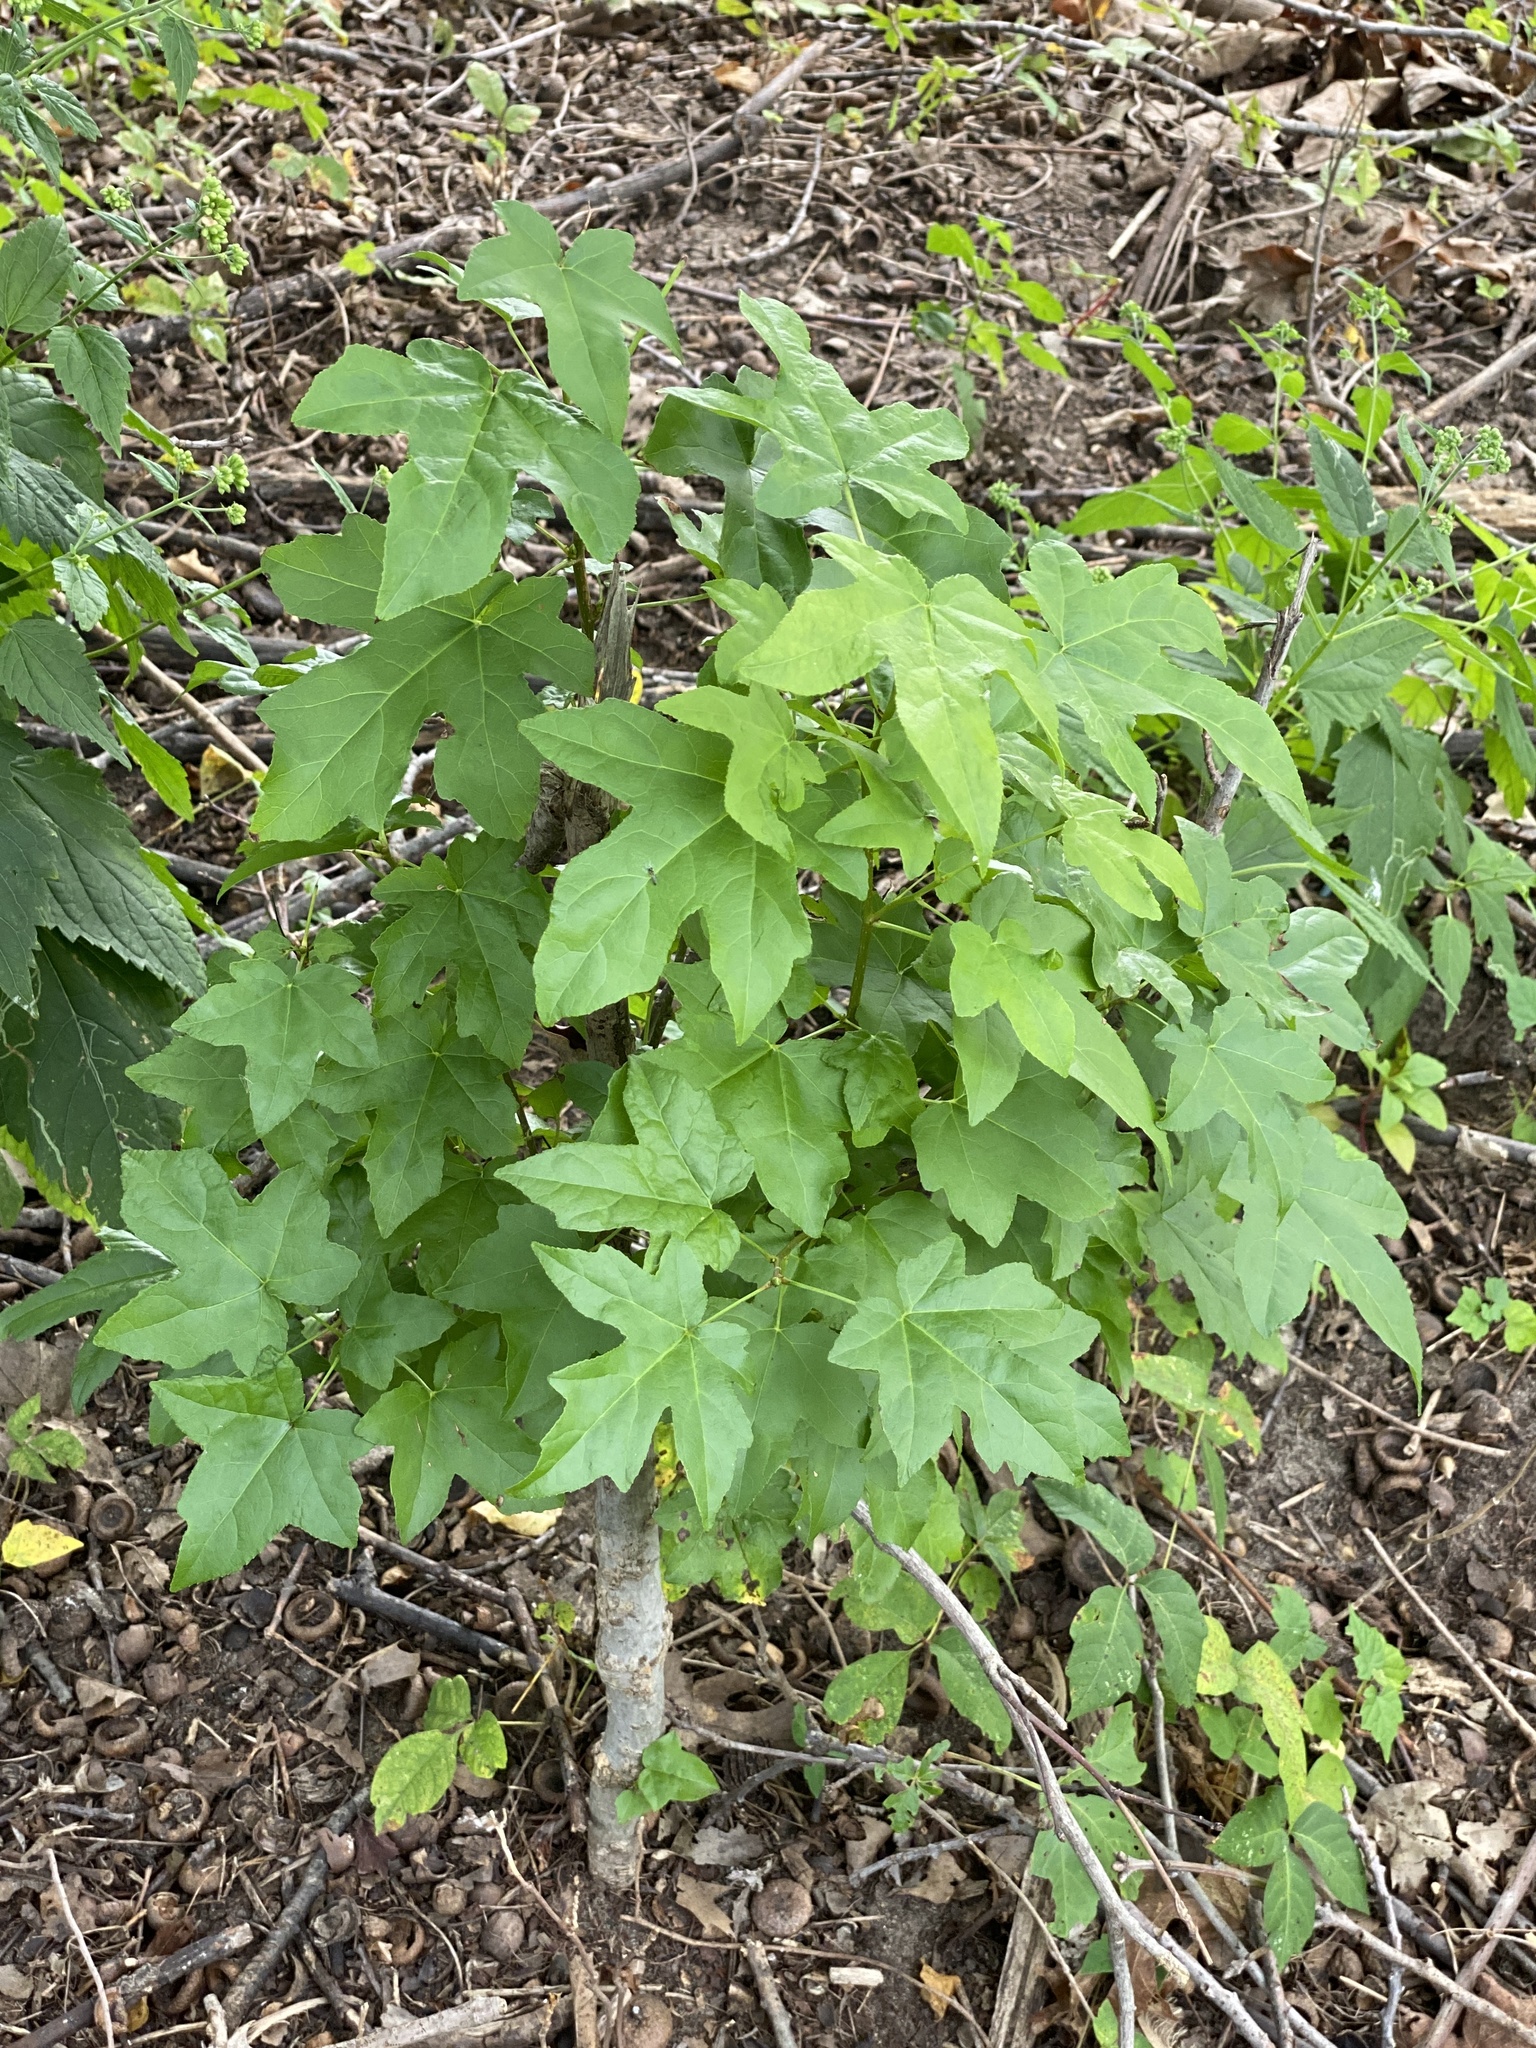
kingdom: Plantae
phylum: Tracheophyta
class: Magnoliopsida
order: Saxifragales
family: Altingiaceae
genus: Liquidambar
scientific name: Liquidambar styraciflua
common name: Sweet gum
